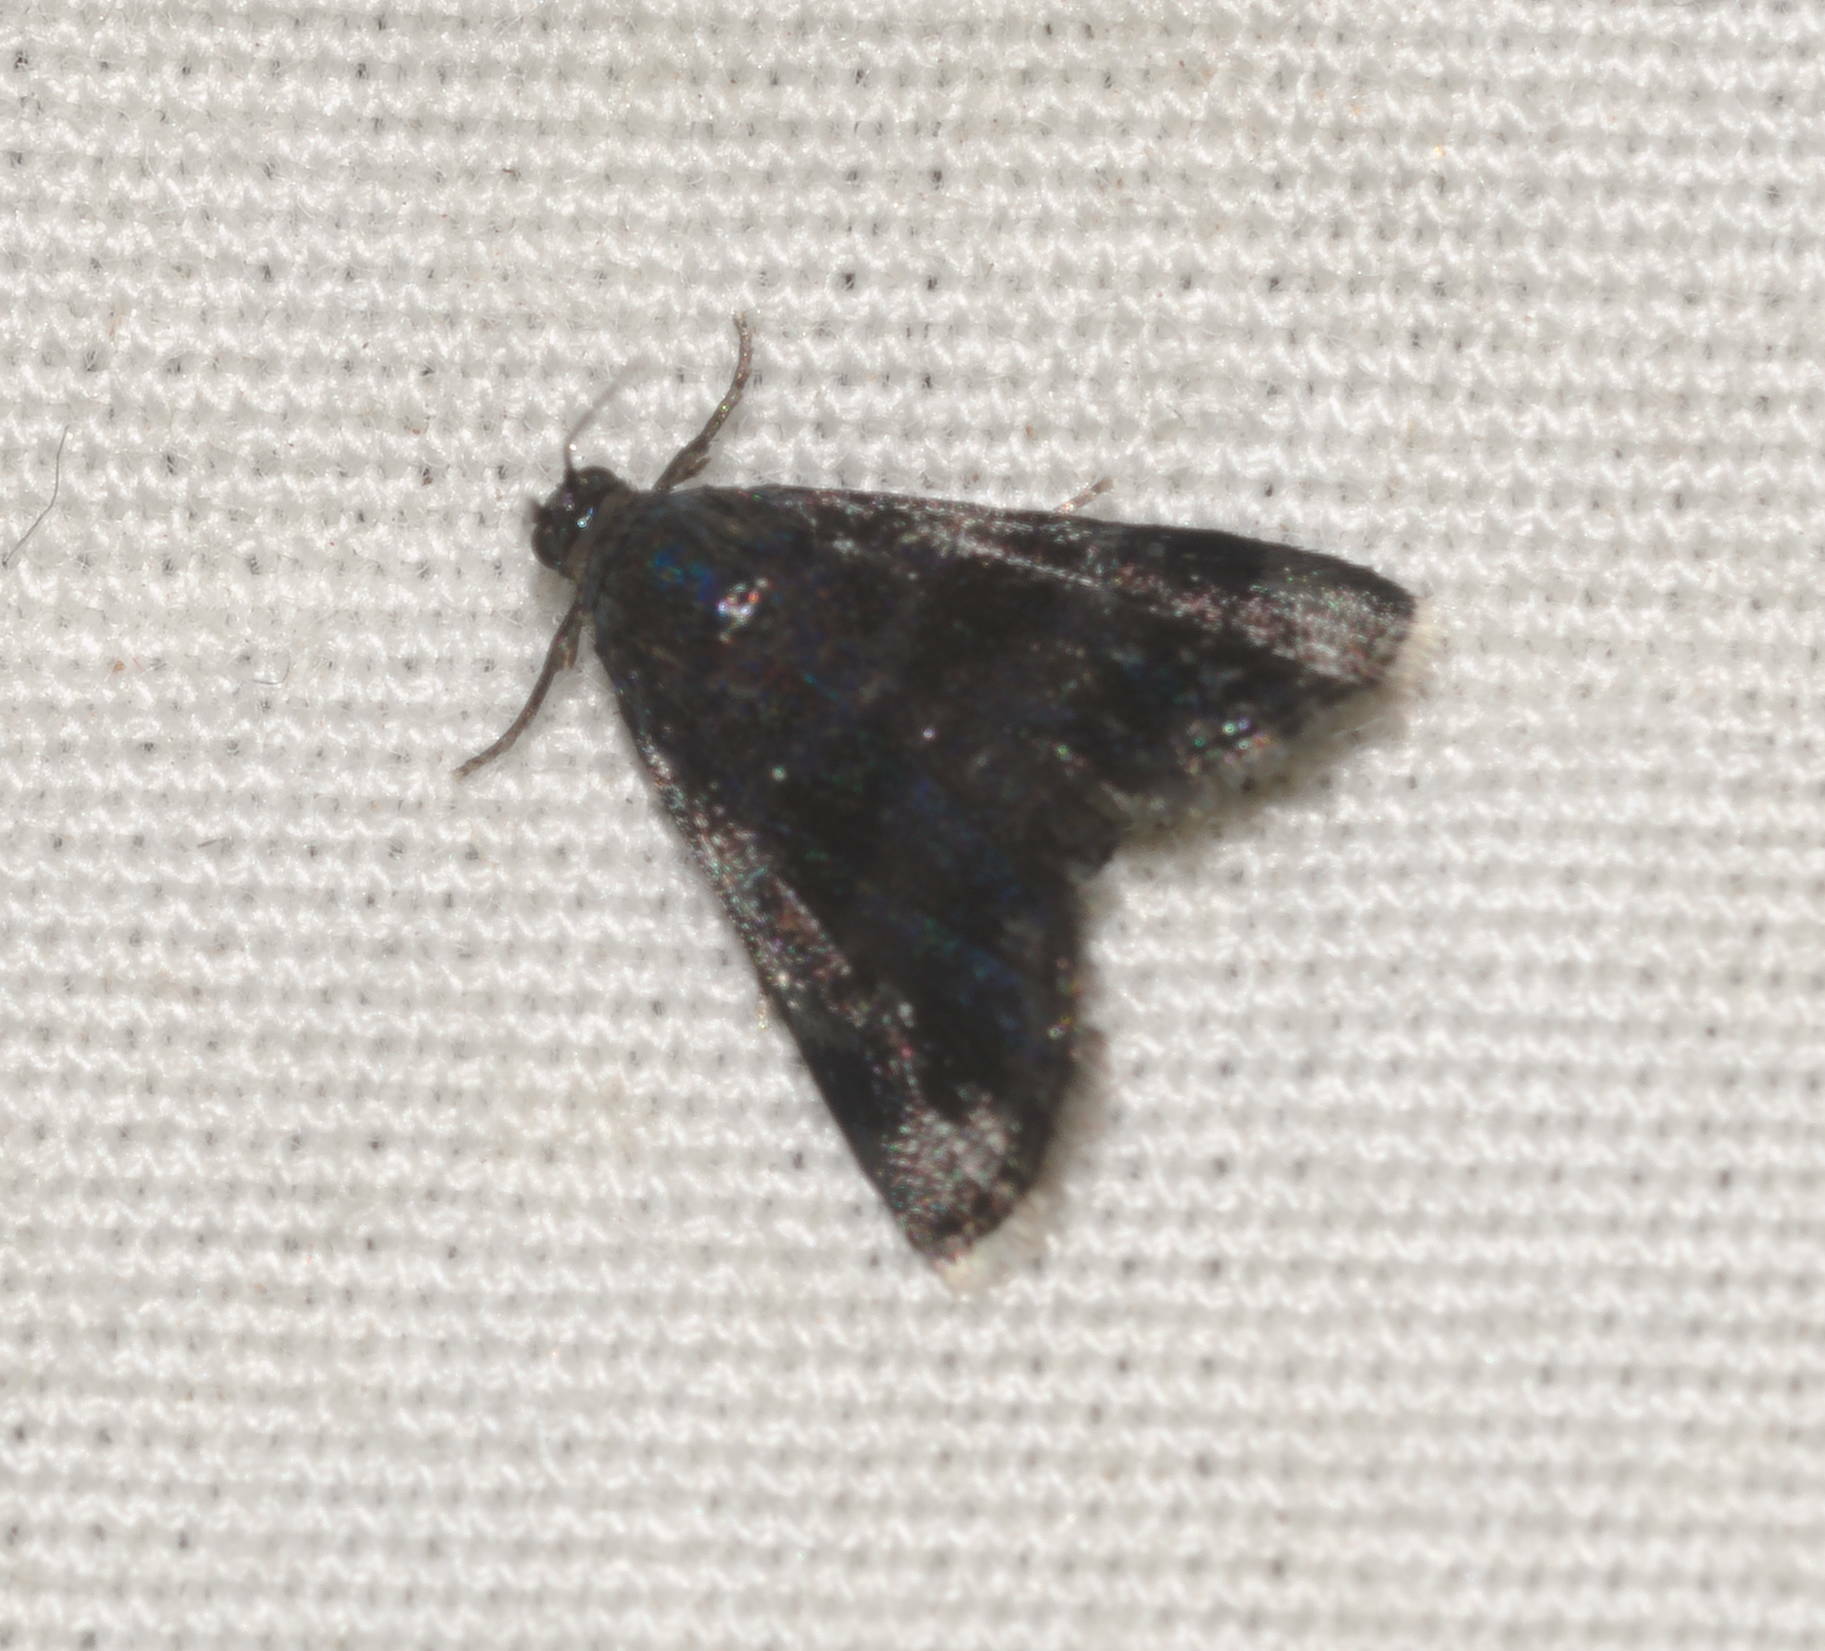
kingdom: Animalia
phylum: Arthropoda
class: Insecta
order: Lepidoptera
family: Crambidae
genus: Mestolobes
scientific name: Mestolobes chrysomolybdoides
